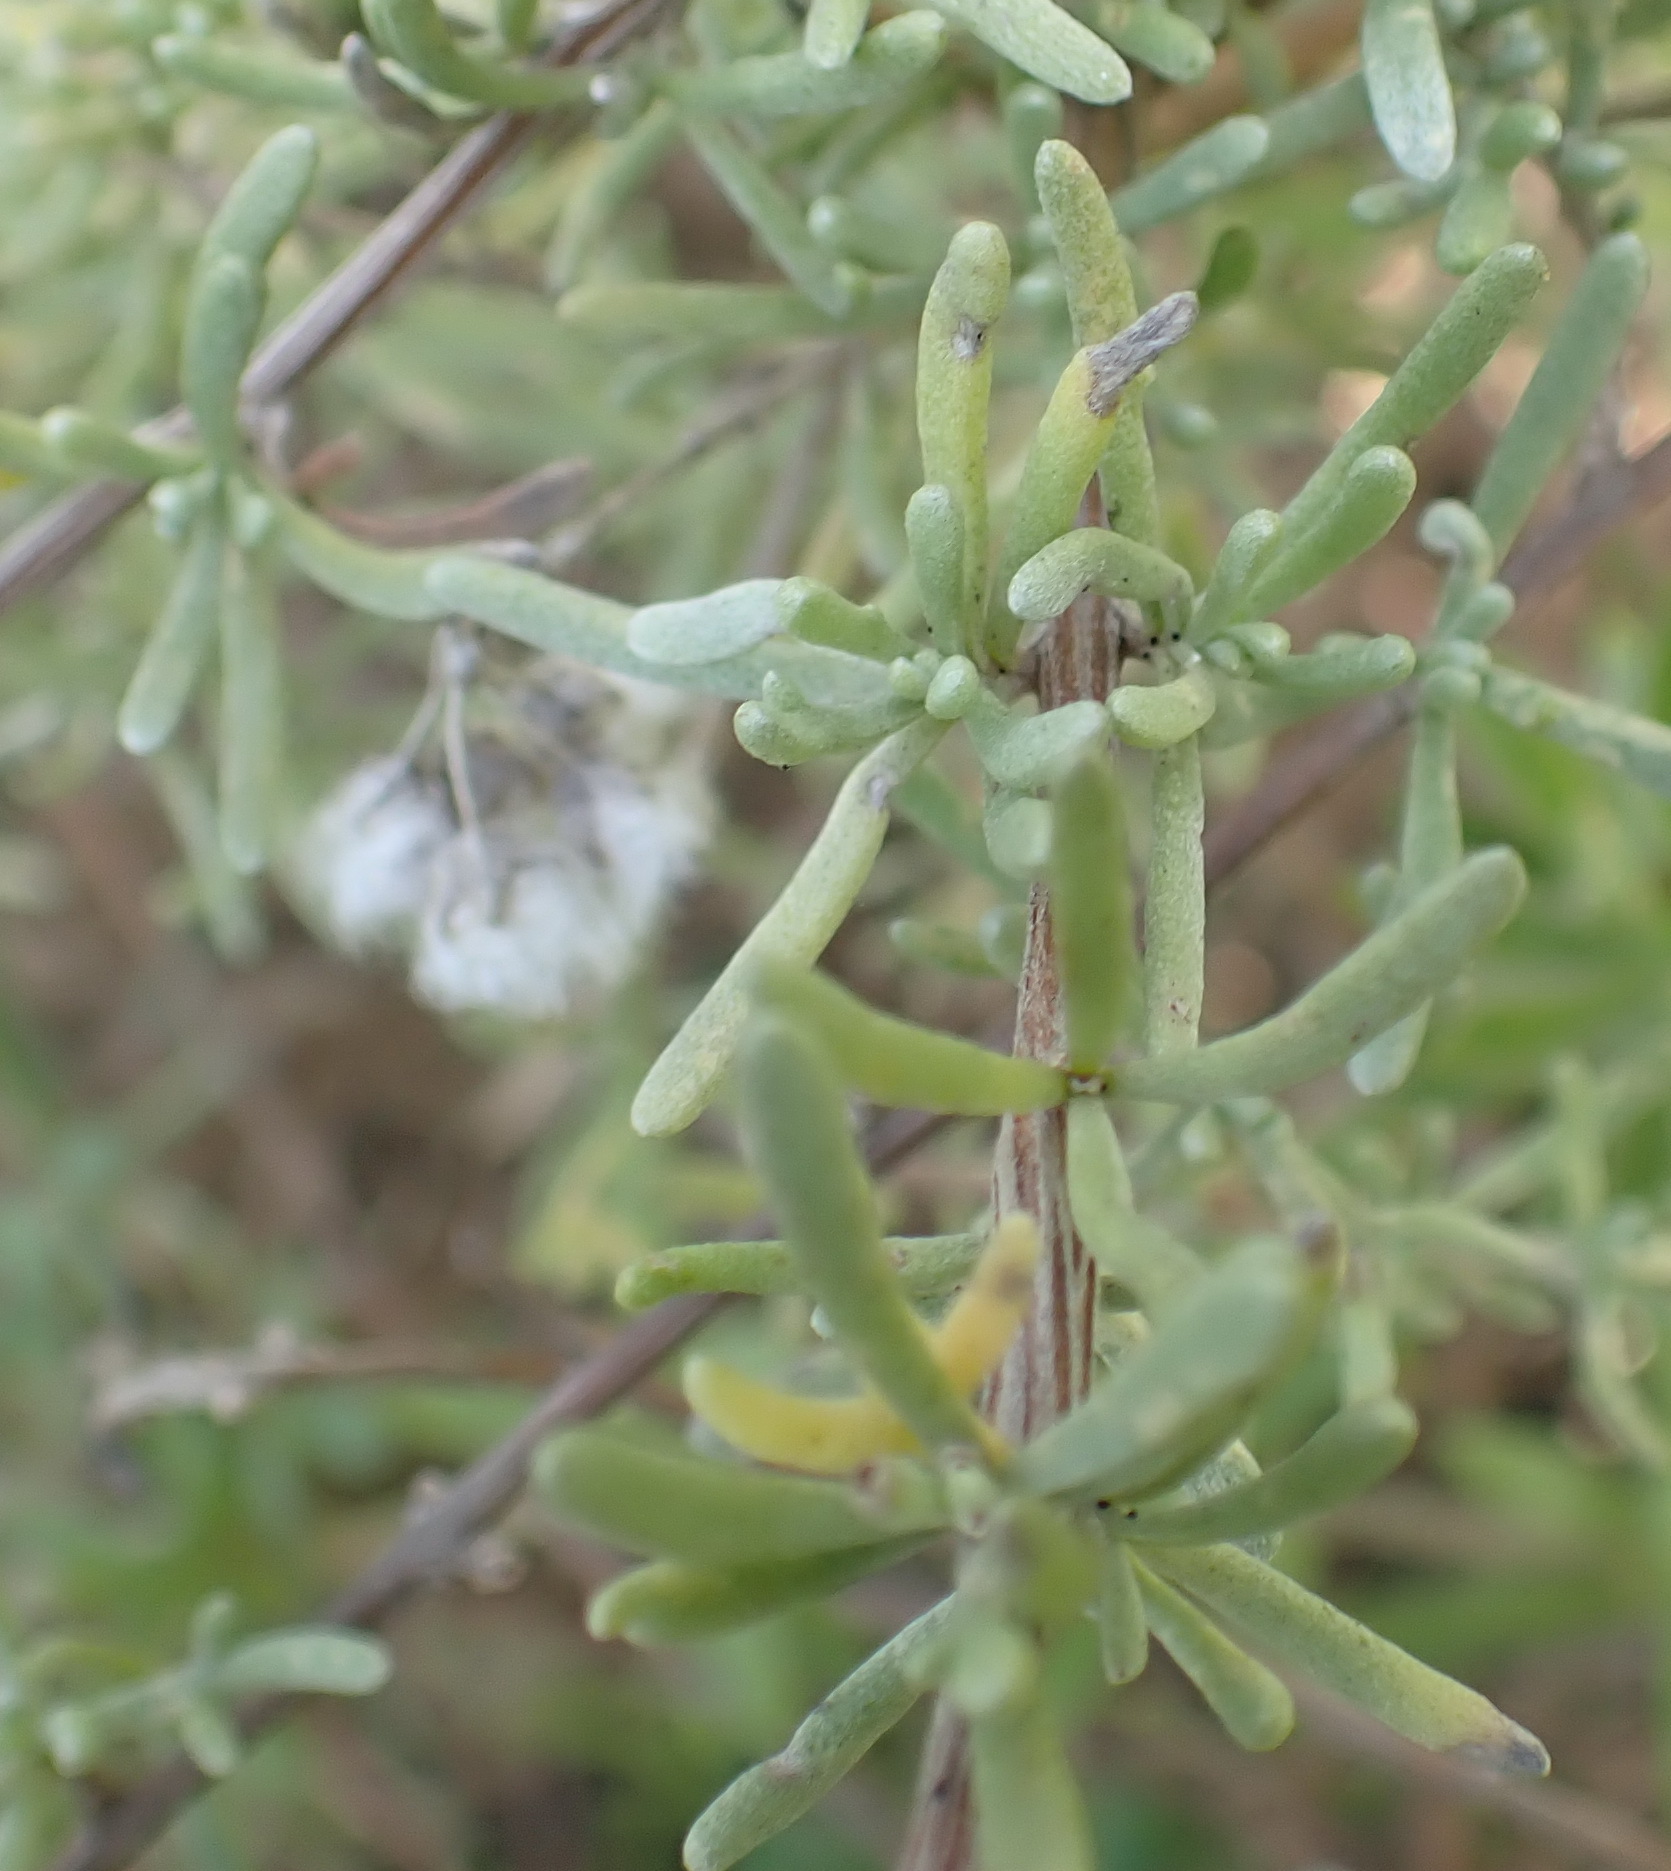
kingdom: Plantae
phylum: Tracheophyta
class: Magnoliopsida
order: Asterales
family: Asteraceae
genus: Eriocephalus
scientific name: Eriocephalus africanus
